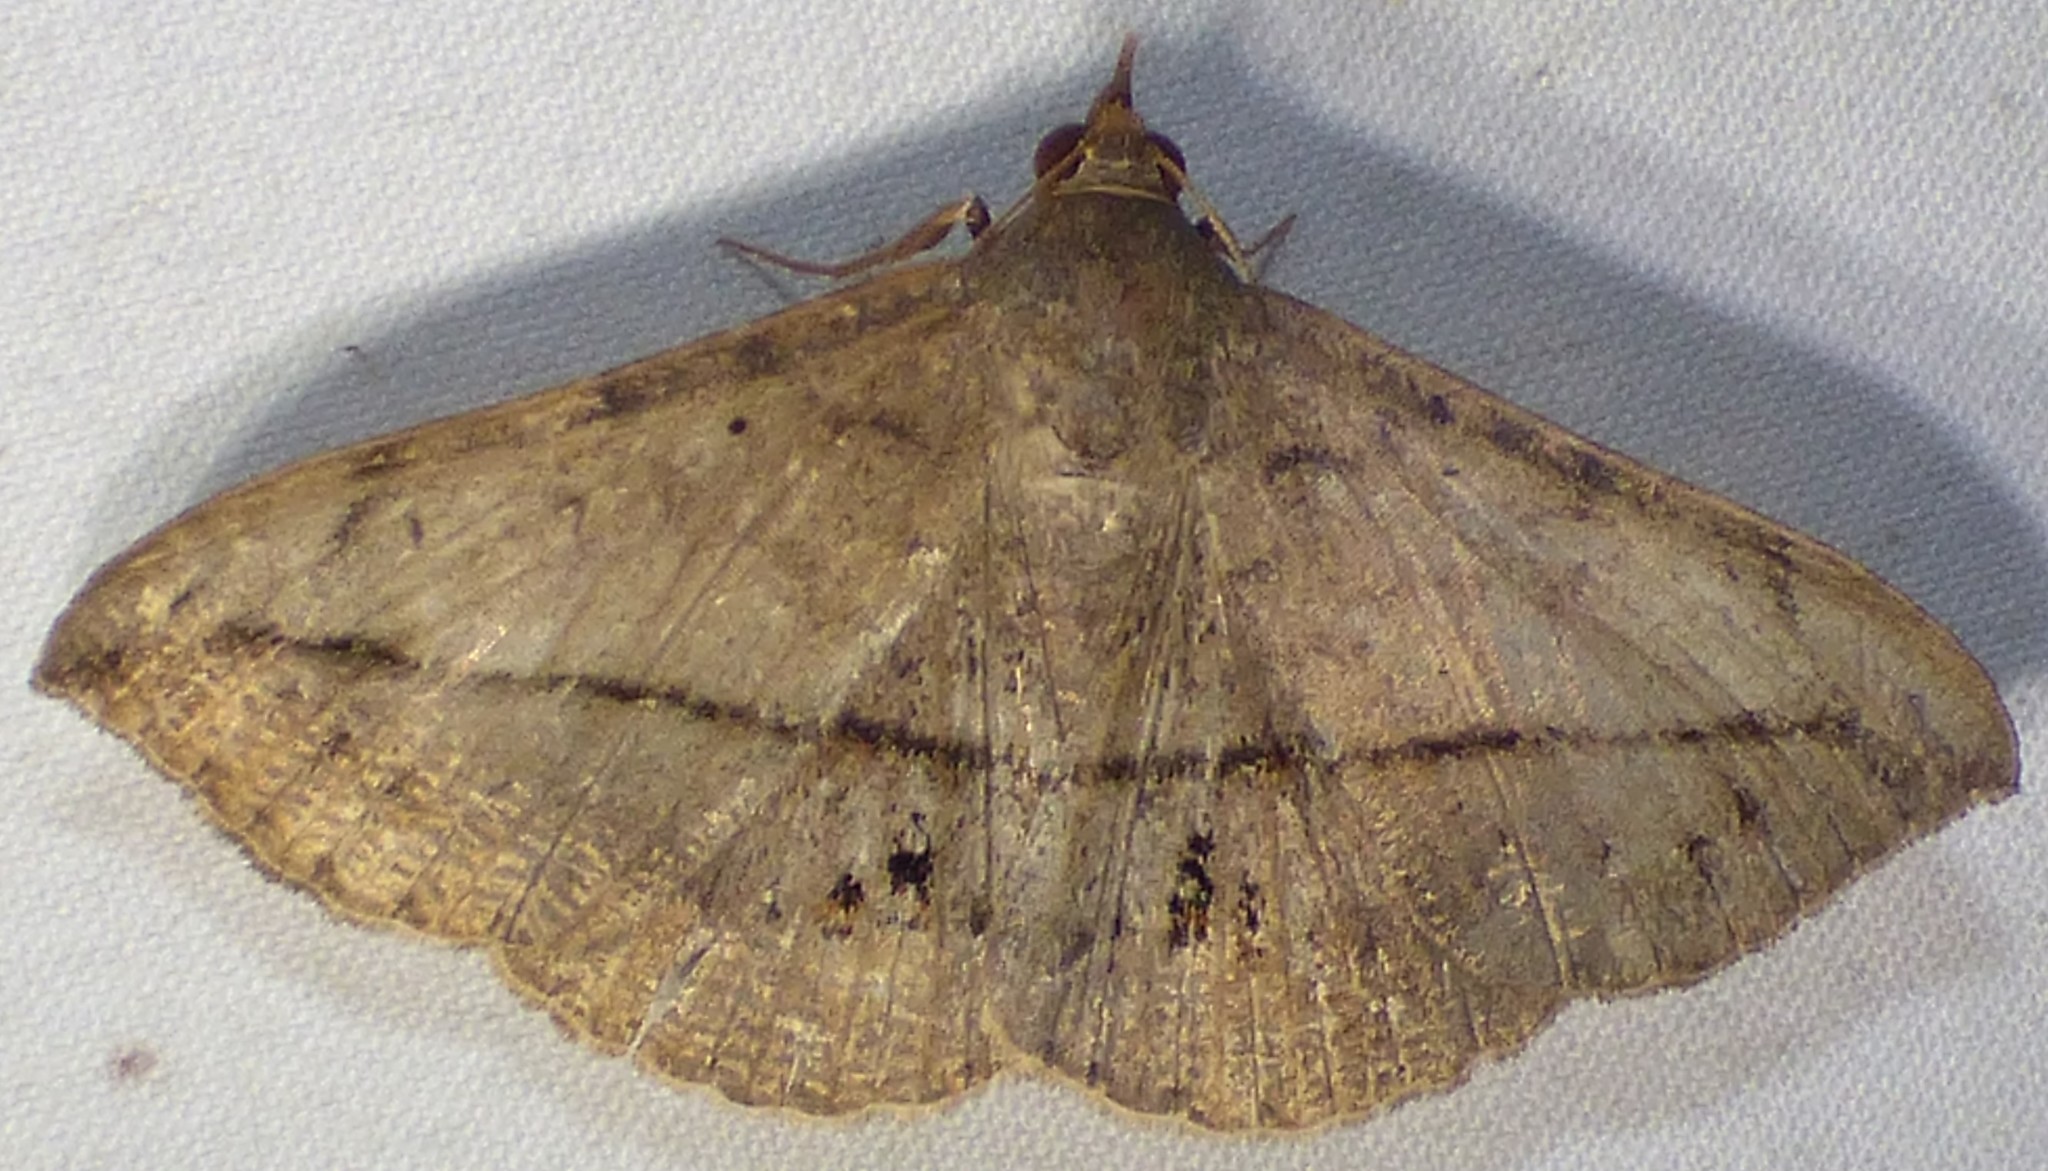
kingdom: Animalia
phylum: Arthropoda
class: Insecta
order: Lepidoptera
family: Erebidae
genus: Anticarsia
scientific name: Anticarsia gemmatalis
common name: Cutworm moth
